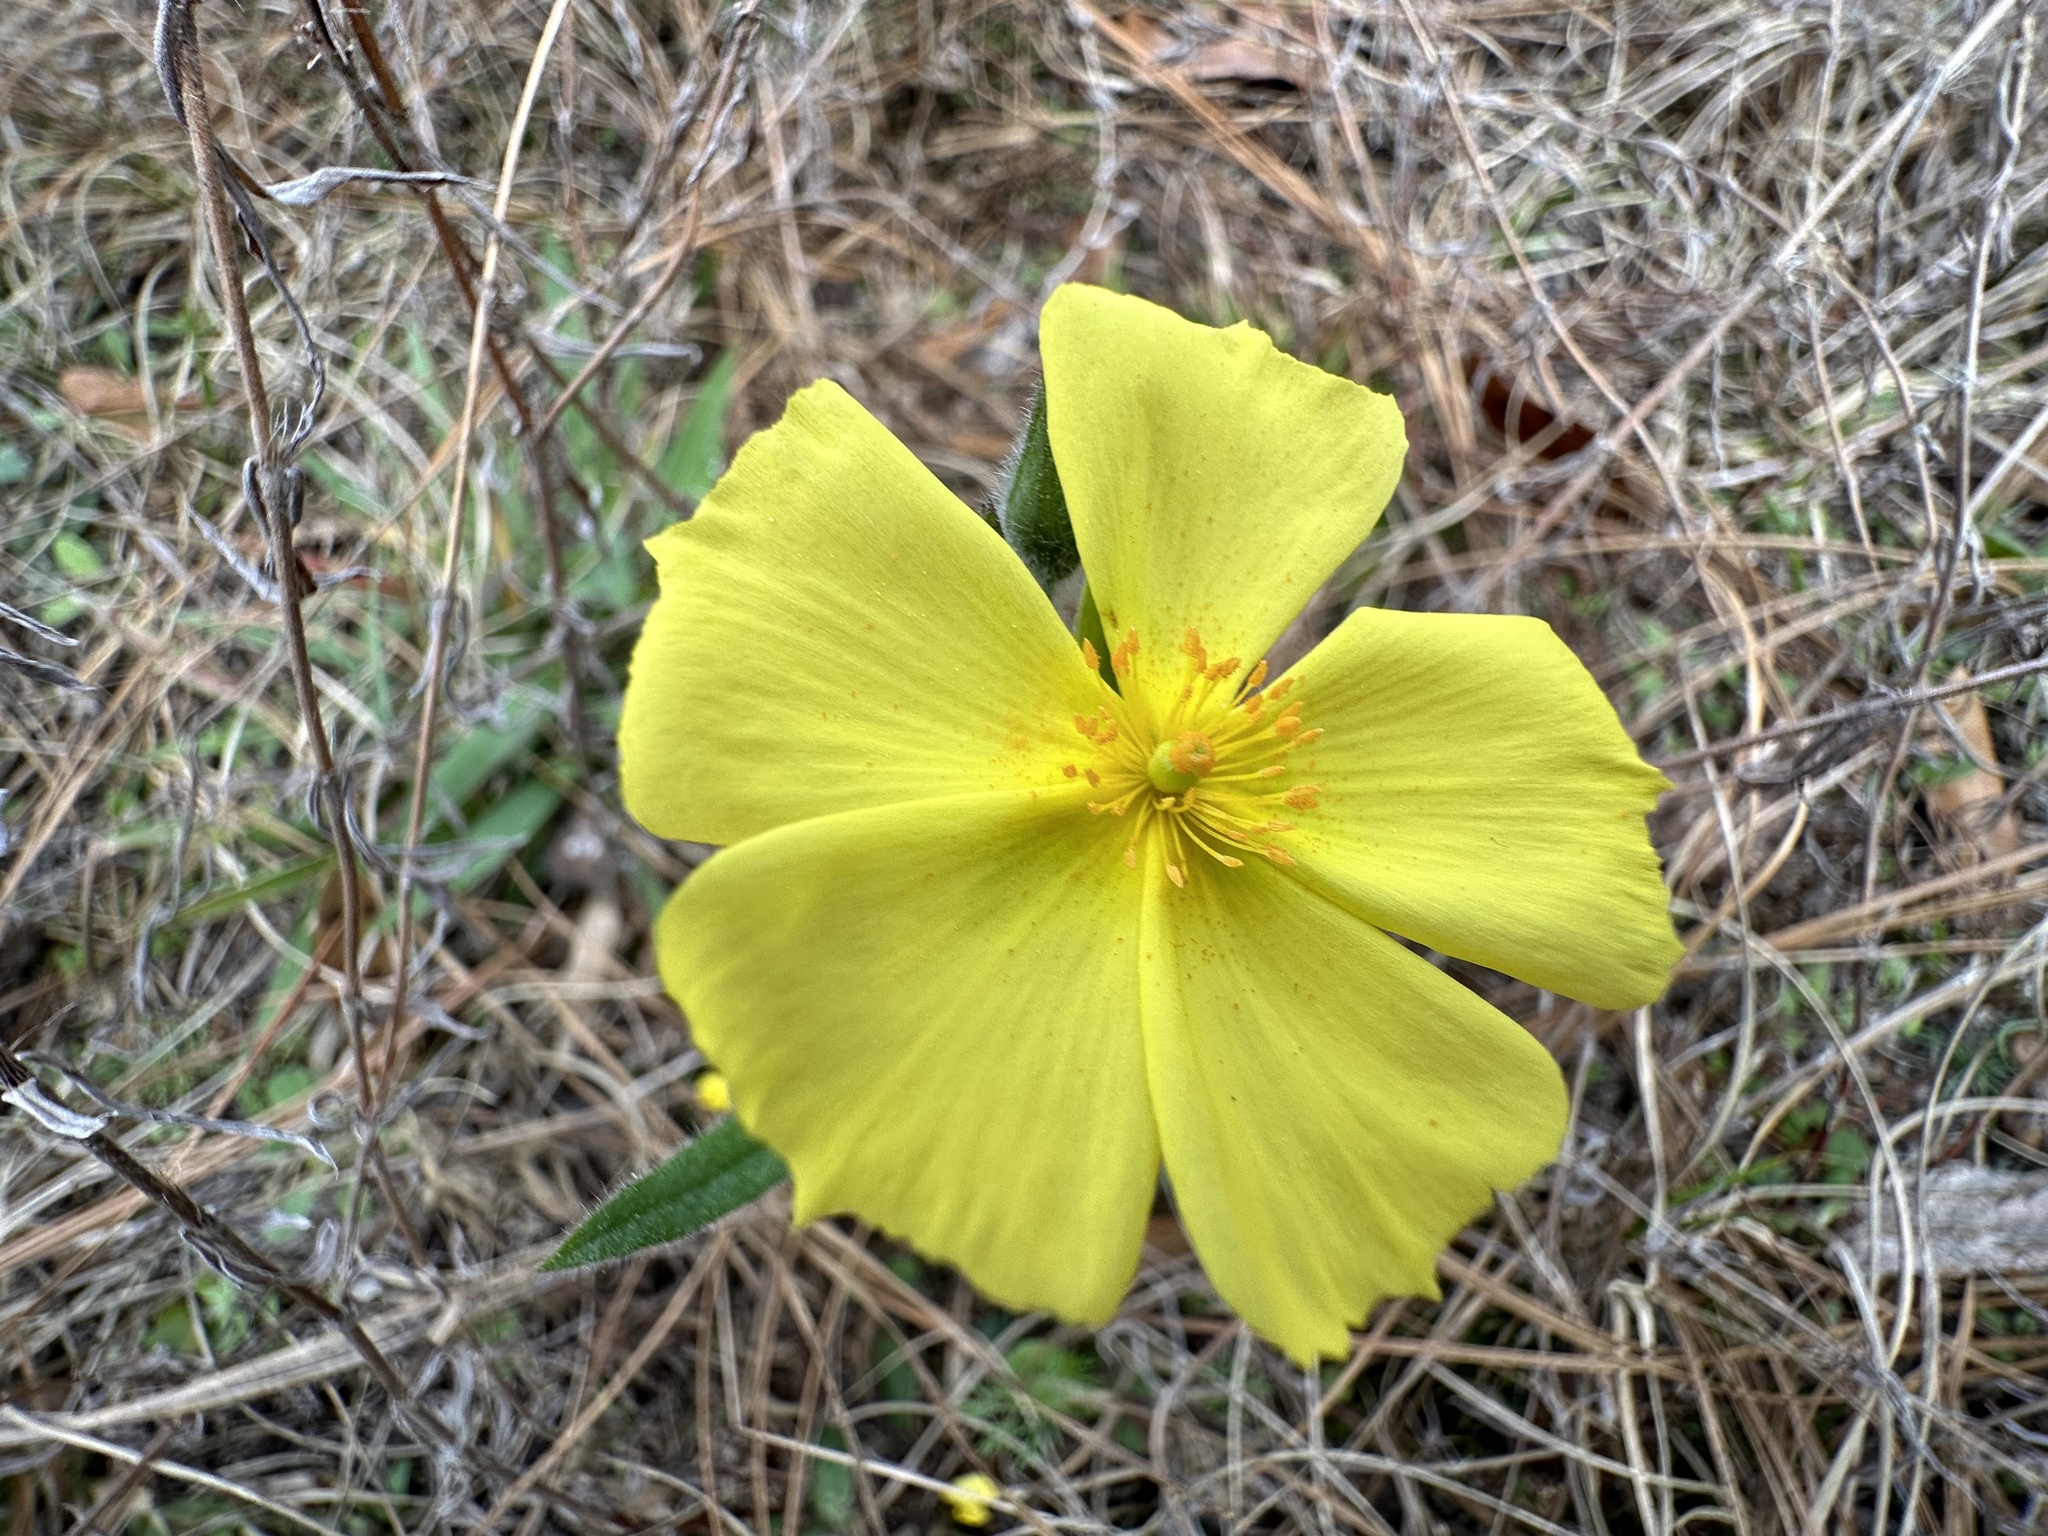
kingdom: Plantae
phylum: Tracheophyta
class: Magnoliopsida
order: Malvales
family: Cistaceae
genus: Crocanthemum
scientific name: Crocanthemum carolinianum
